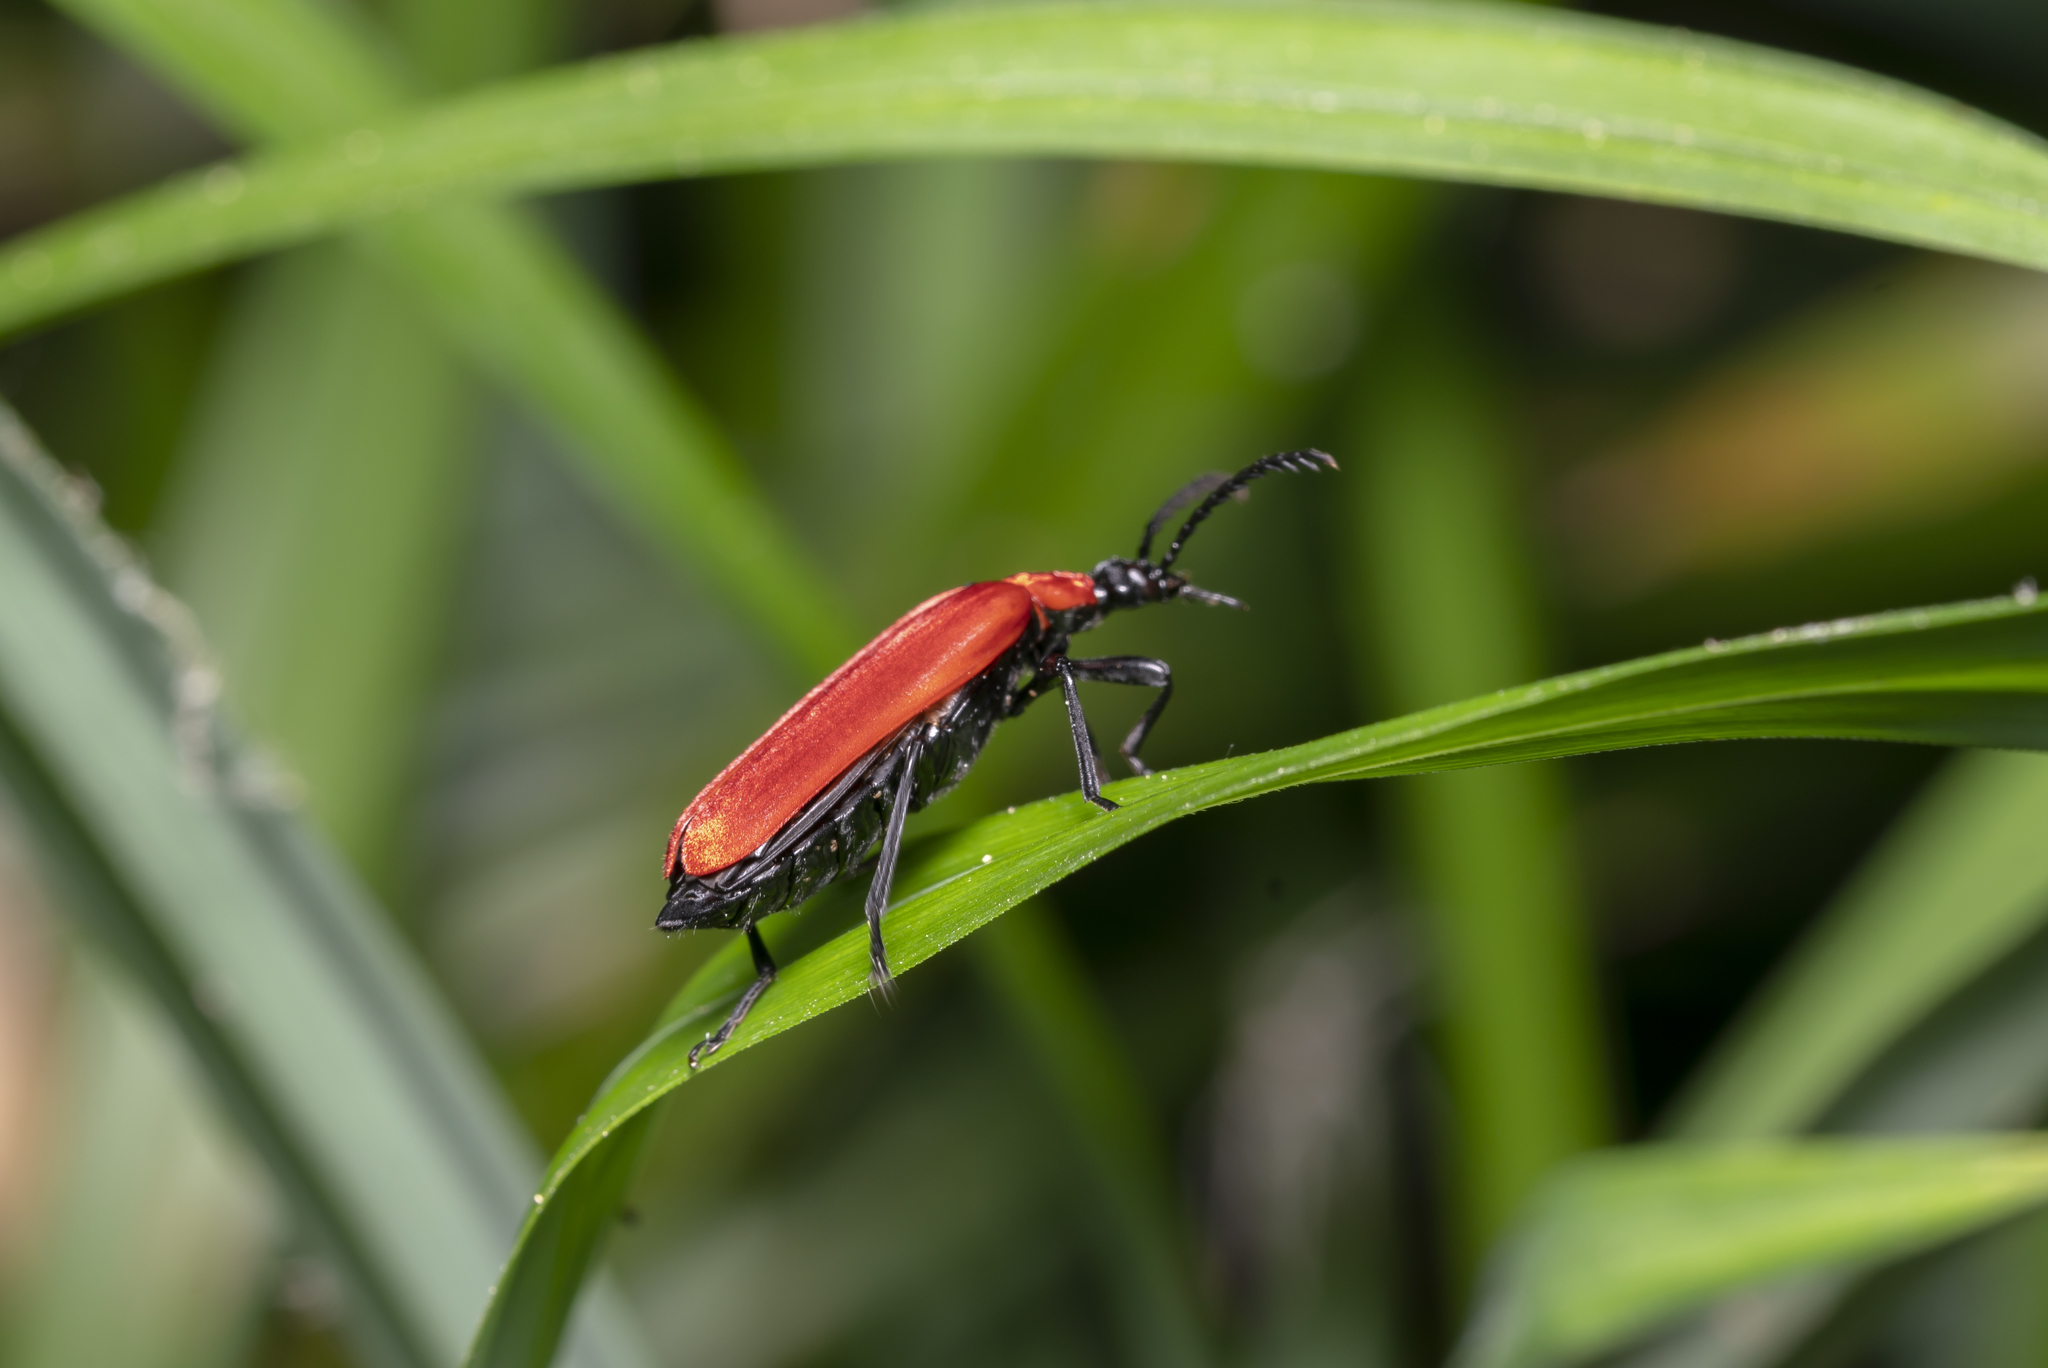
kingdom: Animalia
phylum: Arthropoda
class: Insecta
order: Coleoptera
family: Pyrochroidae
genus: Pyrochroa
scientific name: Pyrochroa coccinea
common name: Black-headed cardinal beetle
